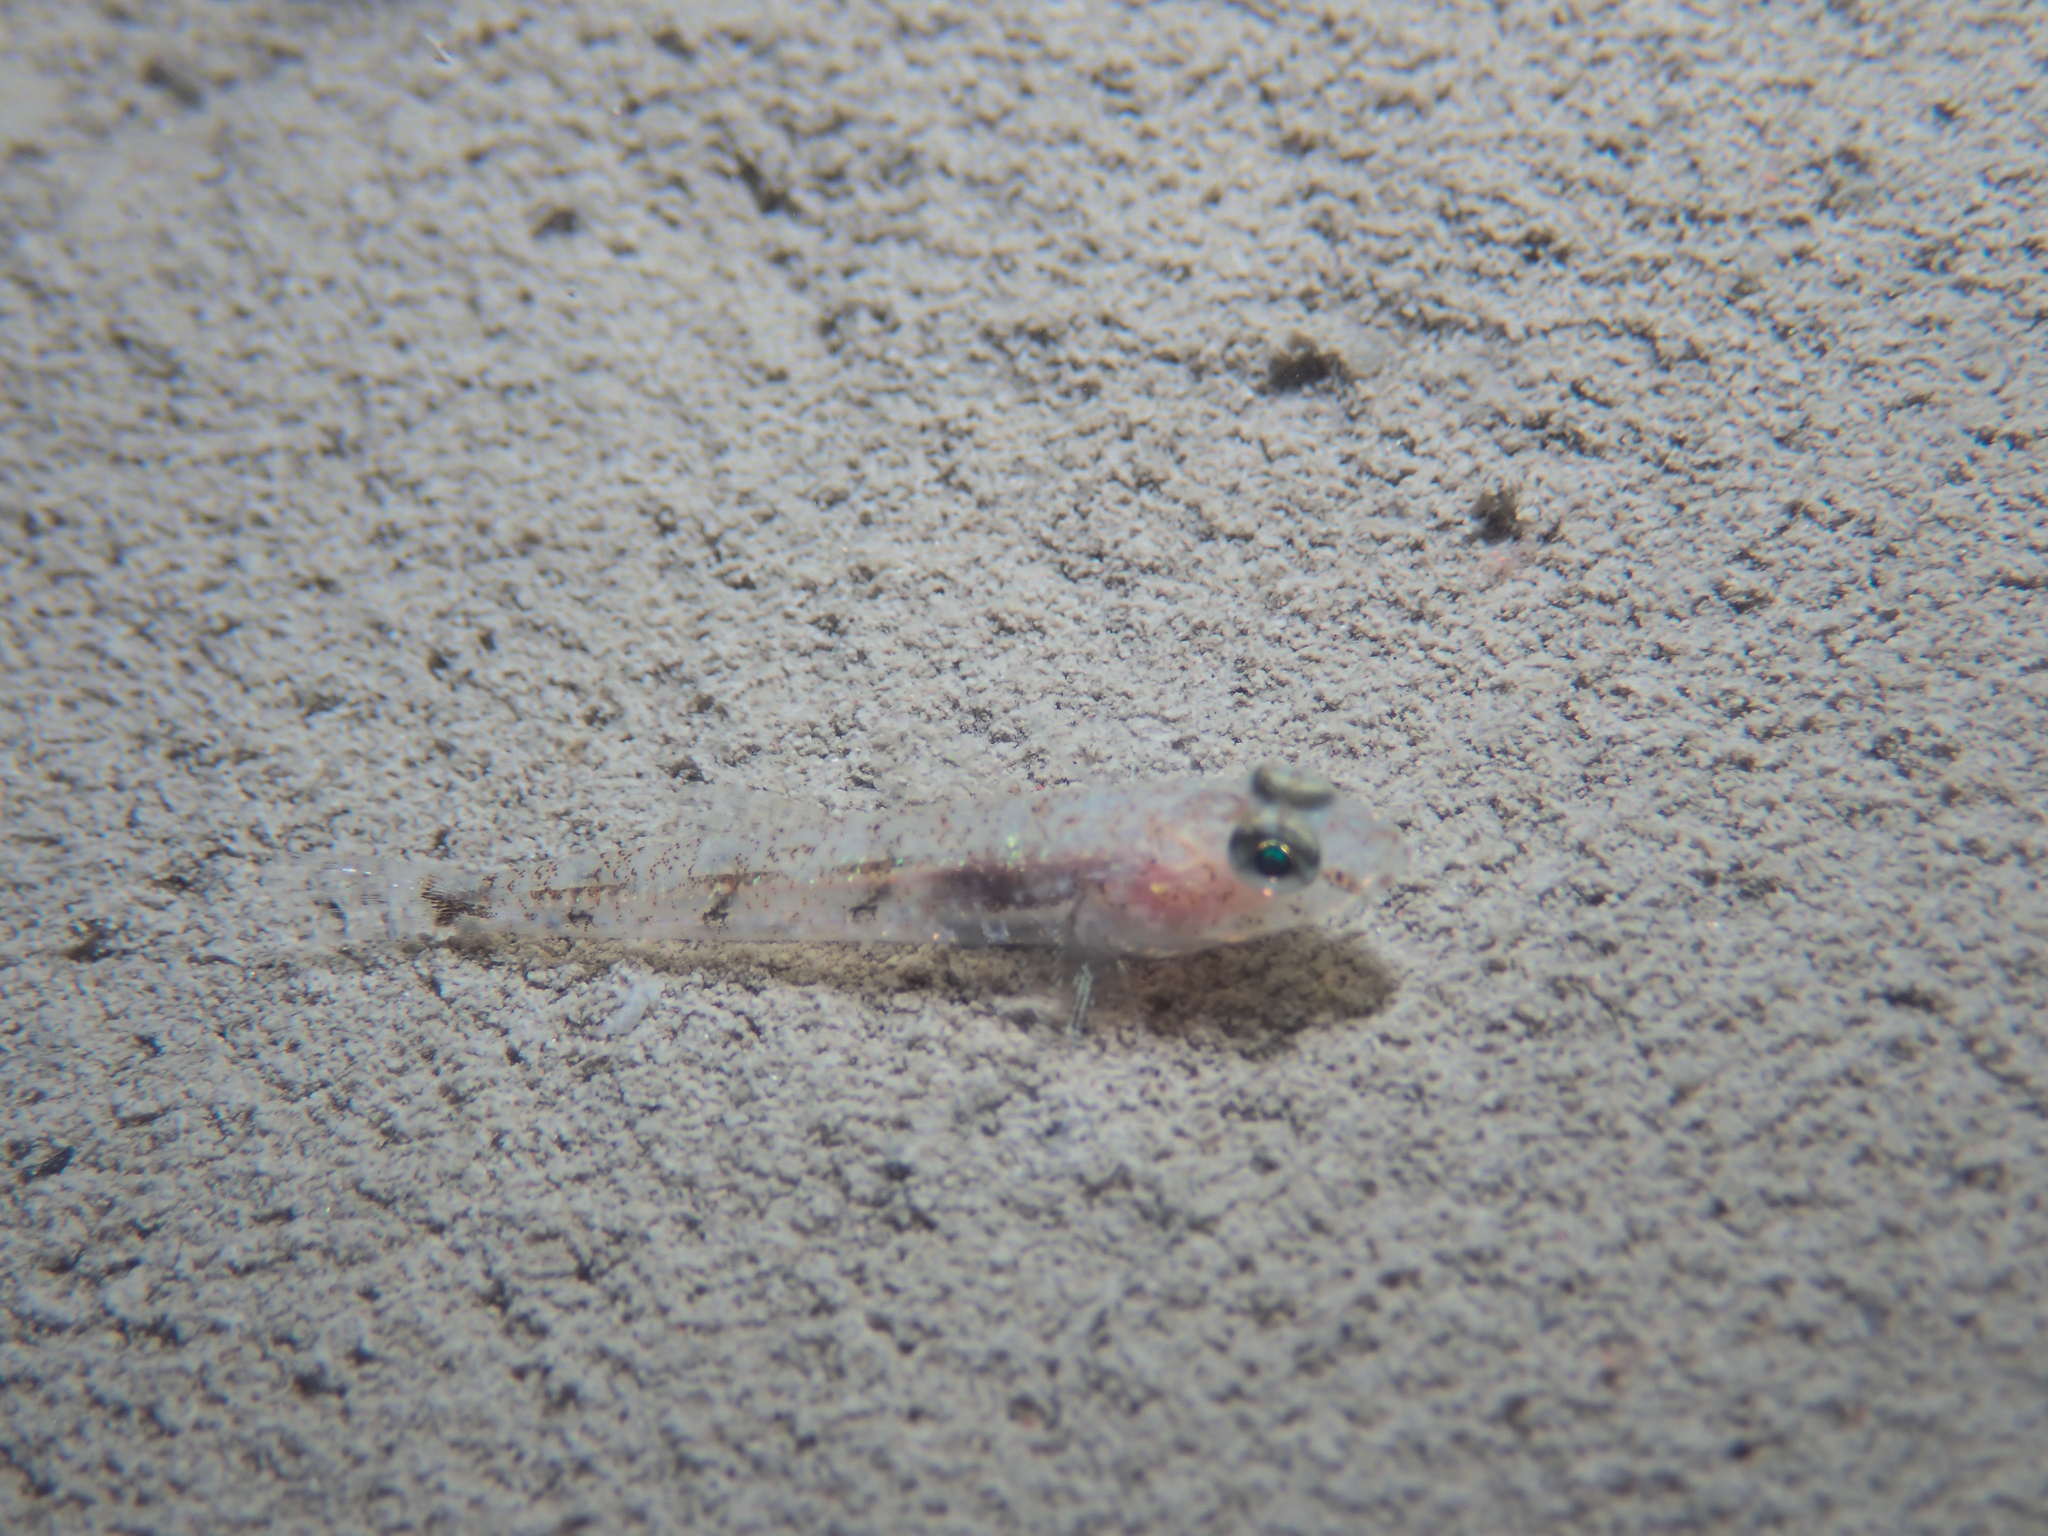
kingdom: Animalia
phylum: Chordata
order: Perciformes
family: Gobiidae
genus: Deltentosteus
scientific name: Deltentosteus quadrimaculatus
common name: Four-spotted goby
